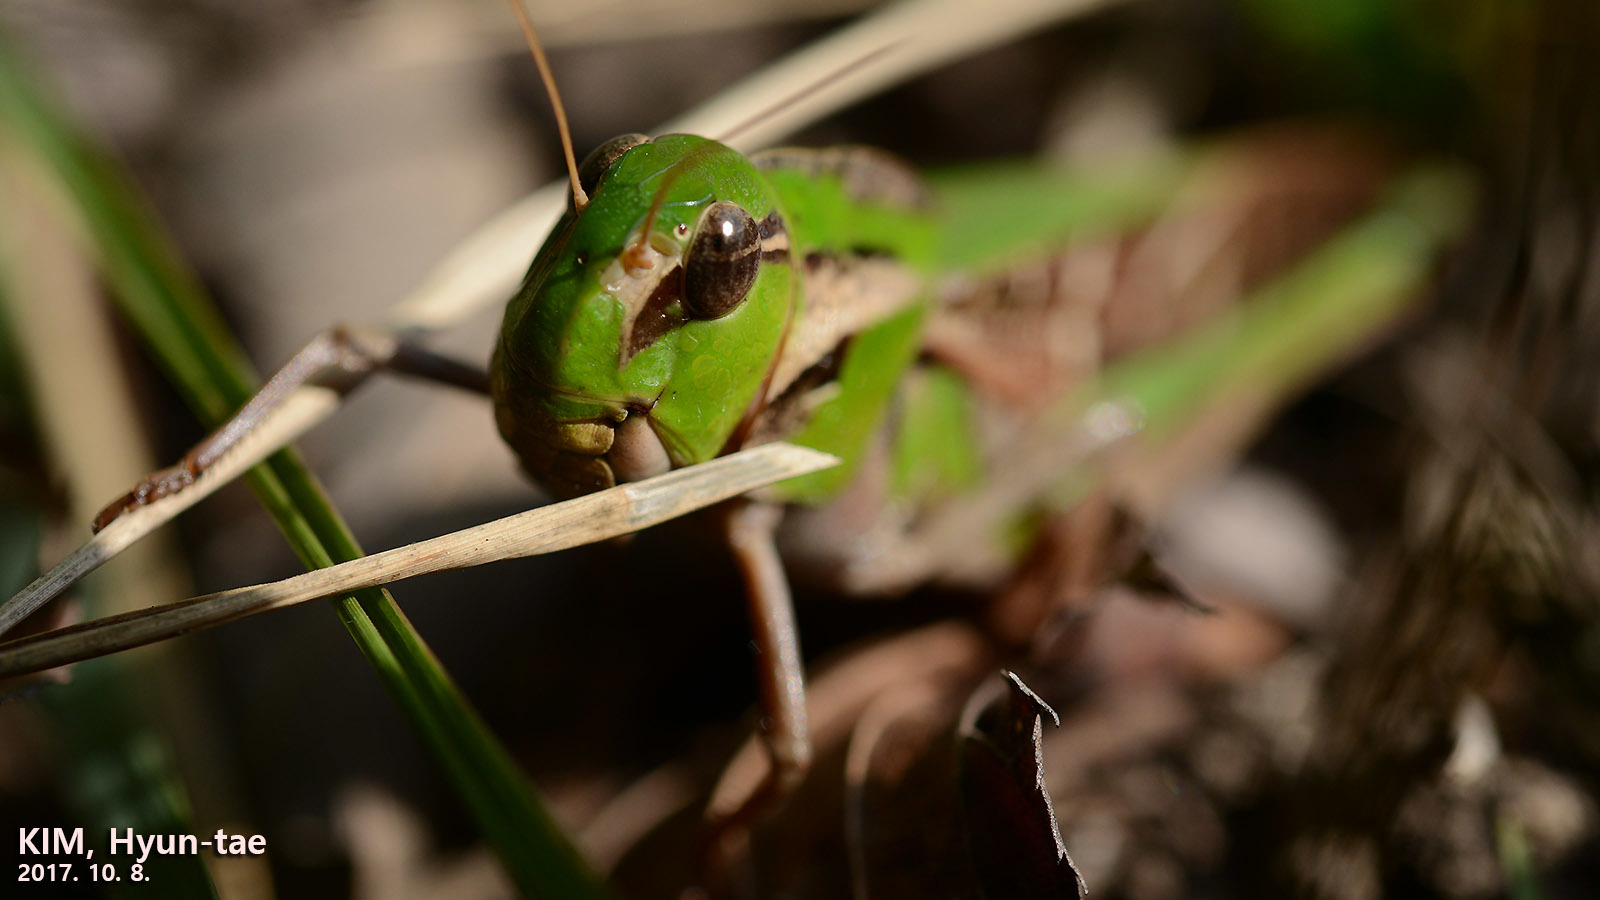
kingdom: Animalia
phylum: Arthropoda
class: Insecta
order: Orthoptera
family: Acrididae
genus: Gastrimargus
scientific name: Gastrimargus marmoratus
